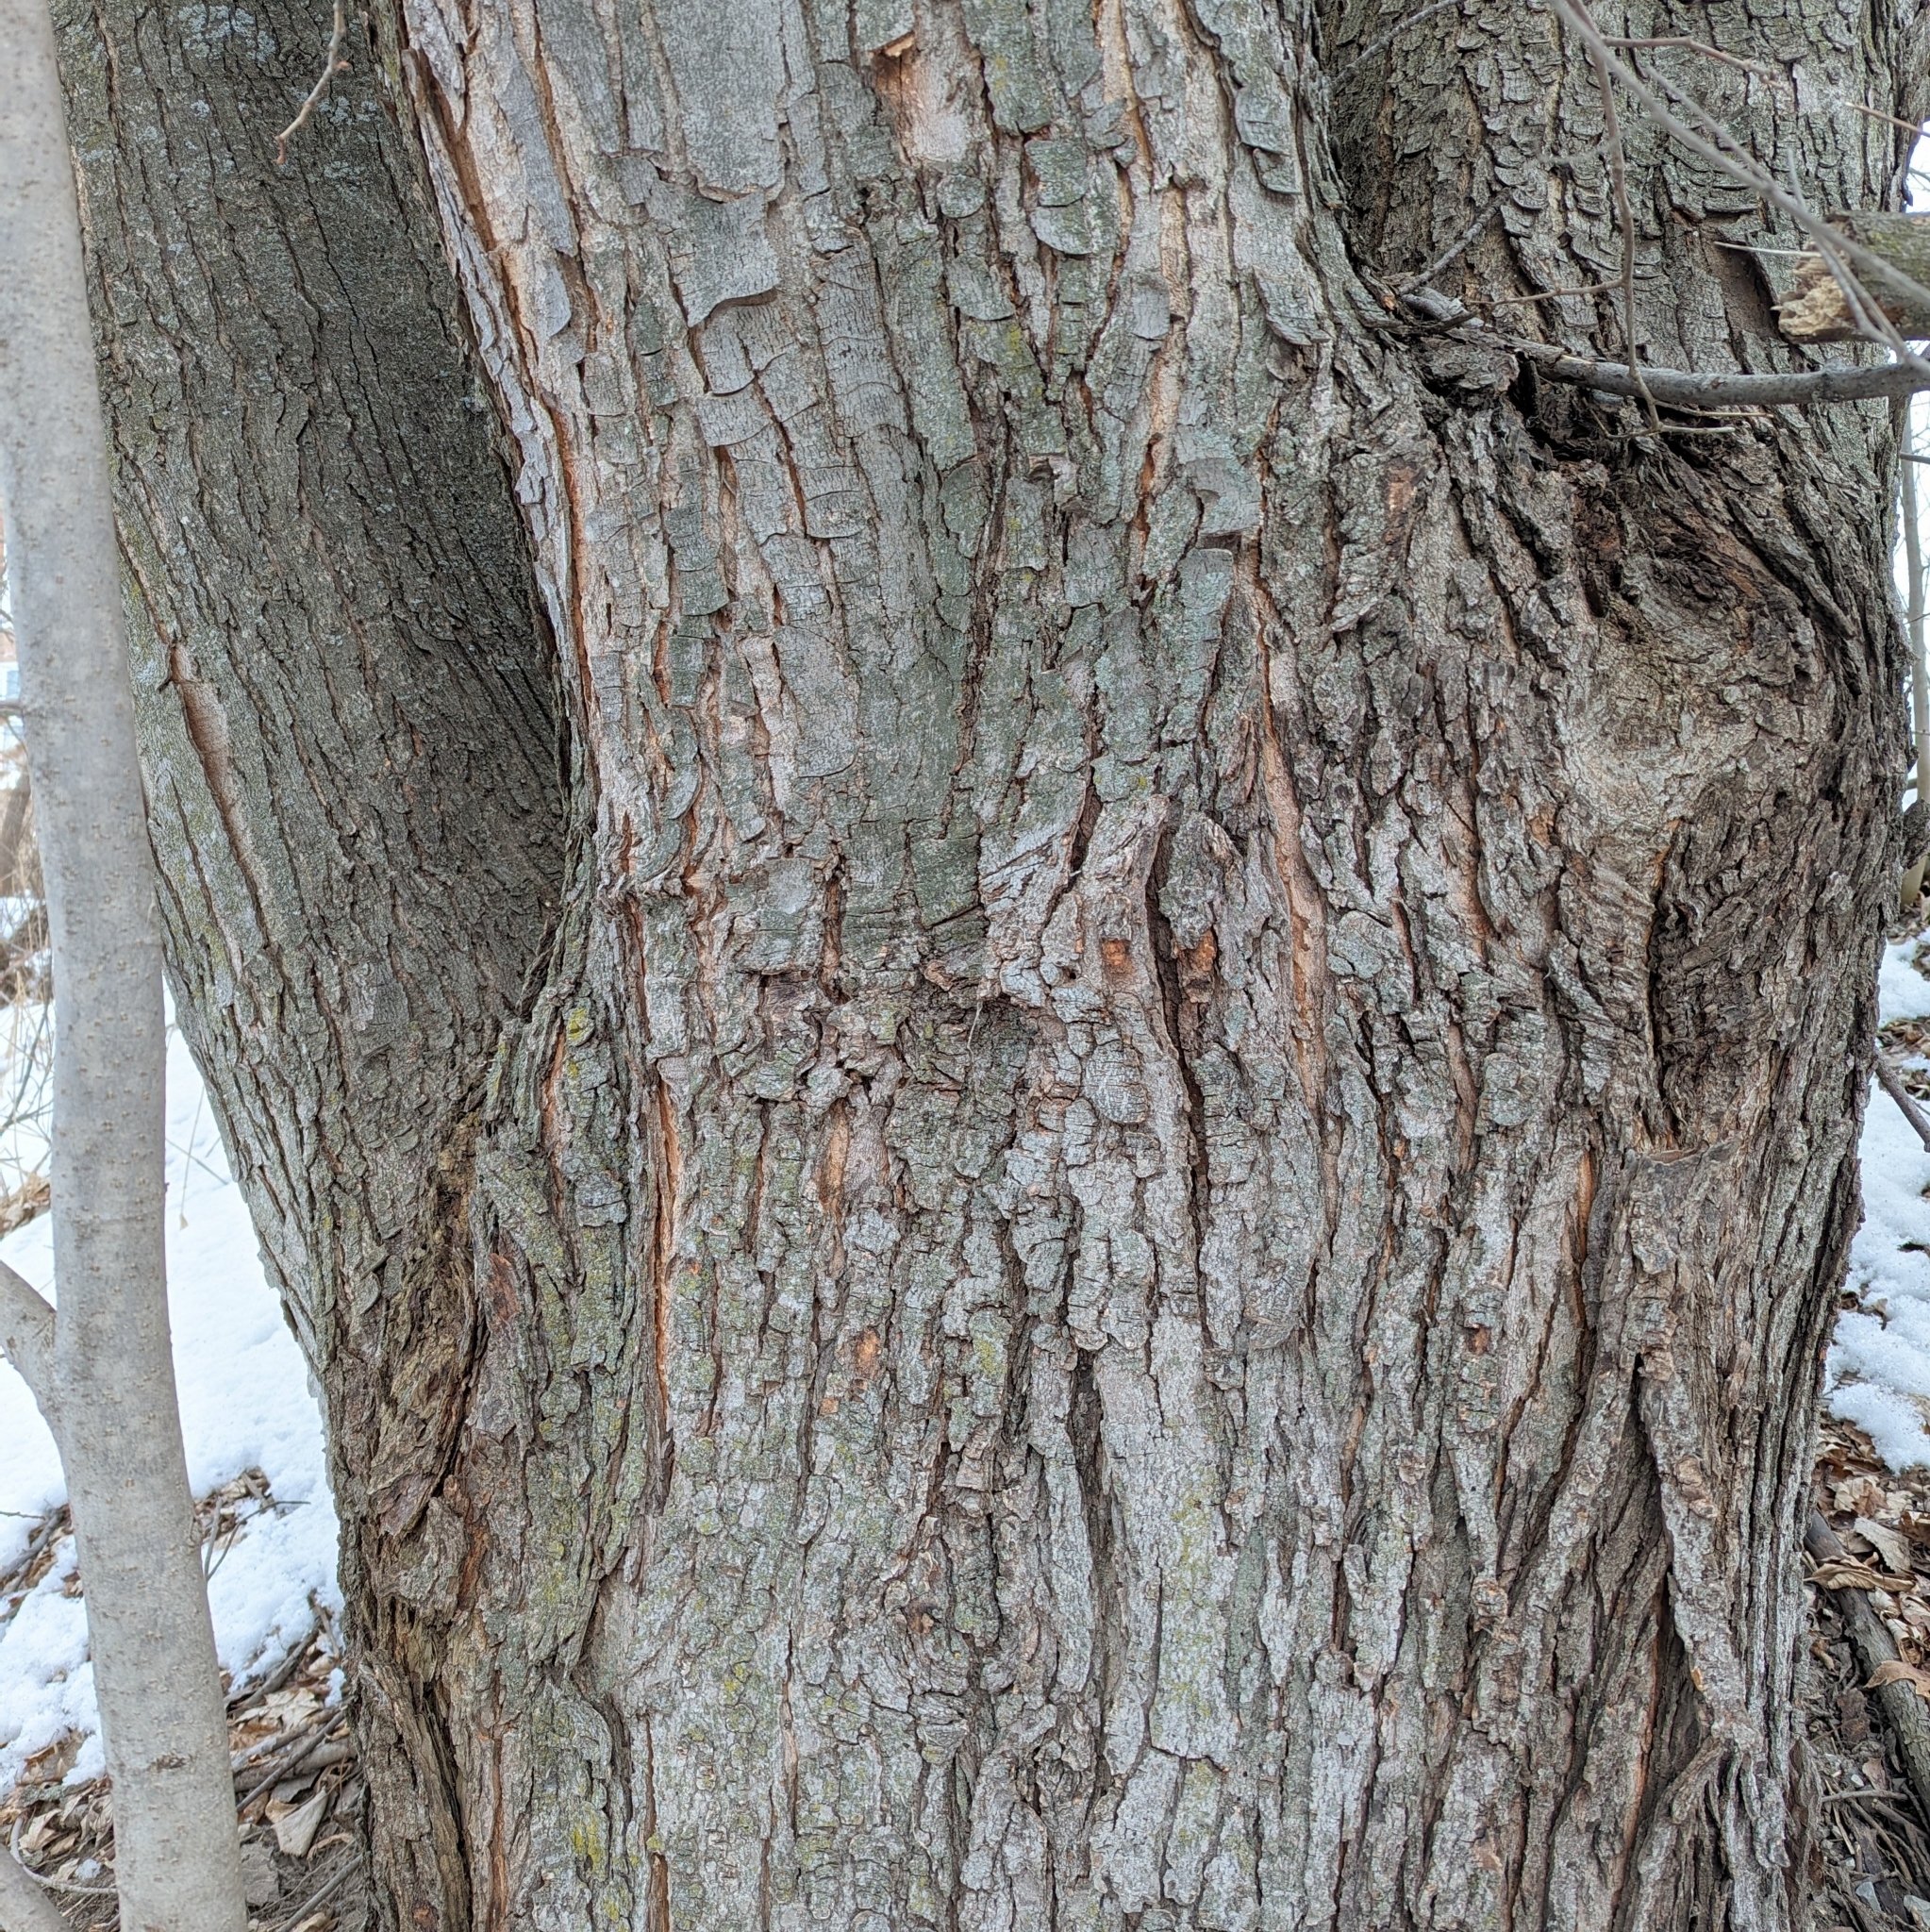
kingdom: Plantae
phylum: Tracheophyta
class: Magnoliopsida
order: Gentianales
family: Rubiaceae
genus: Rubia
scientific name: Rubia
